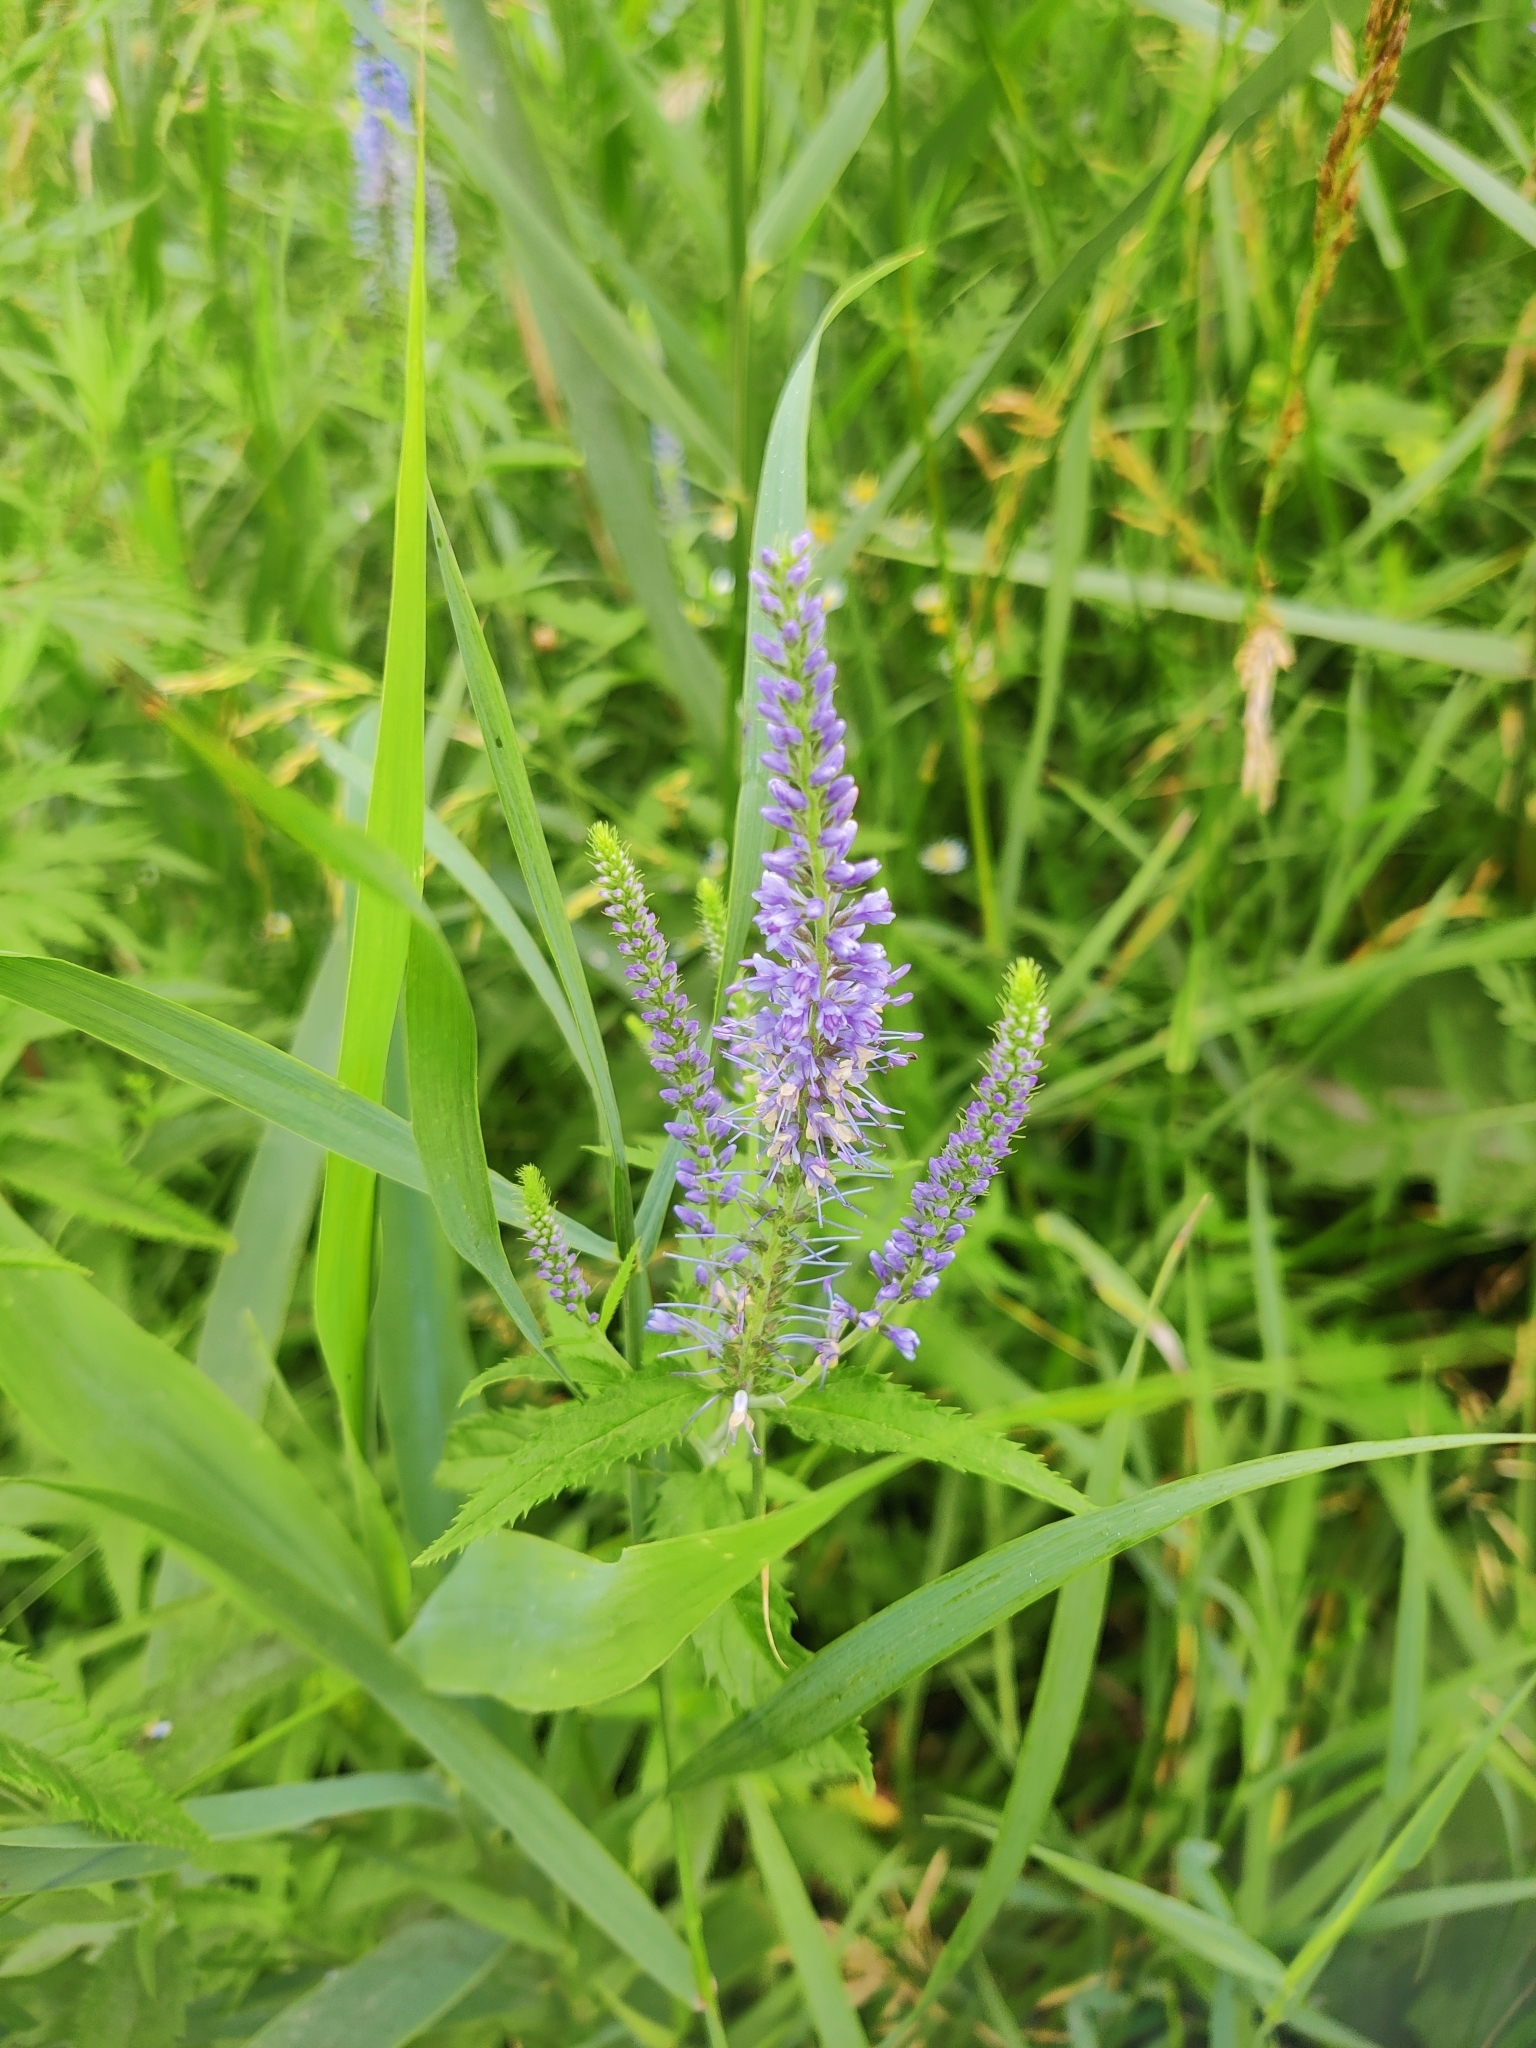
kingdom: Plantae
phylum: Tracheophyta
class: Magnoliopsida
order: Lamiales
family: Plantaginaceae
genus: Veronica
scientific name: Veronica longifolia
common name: Garden speedwell
